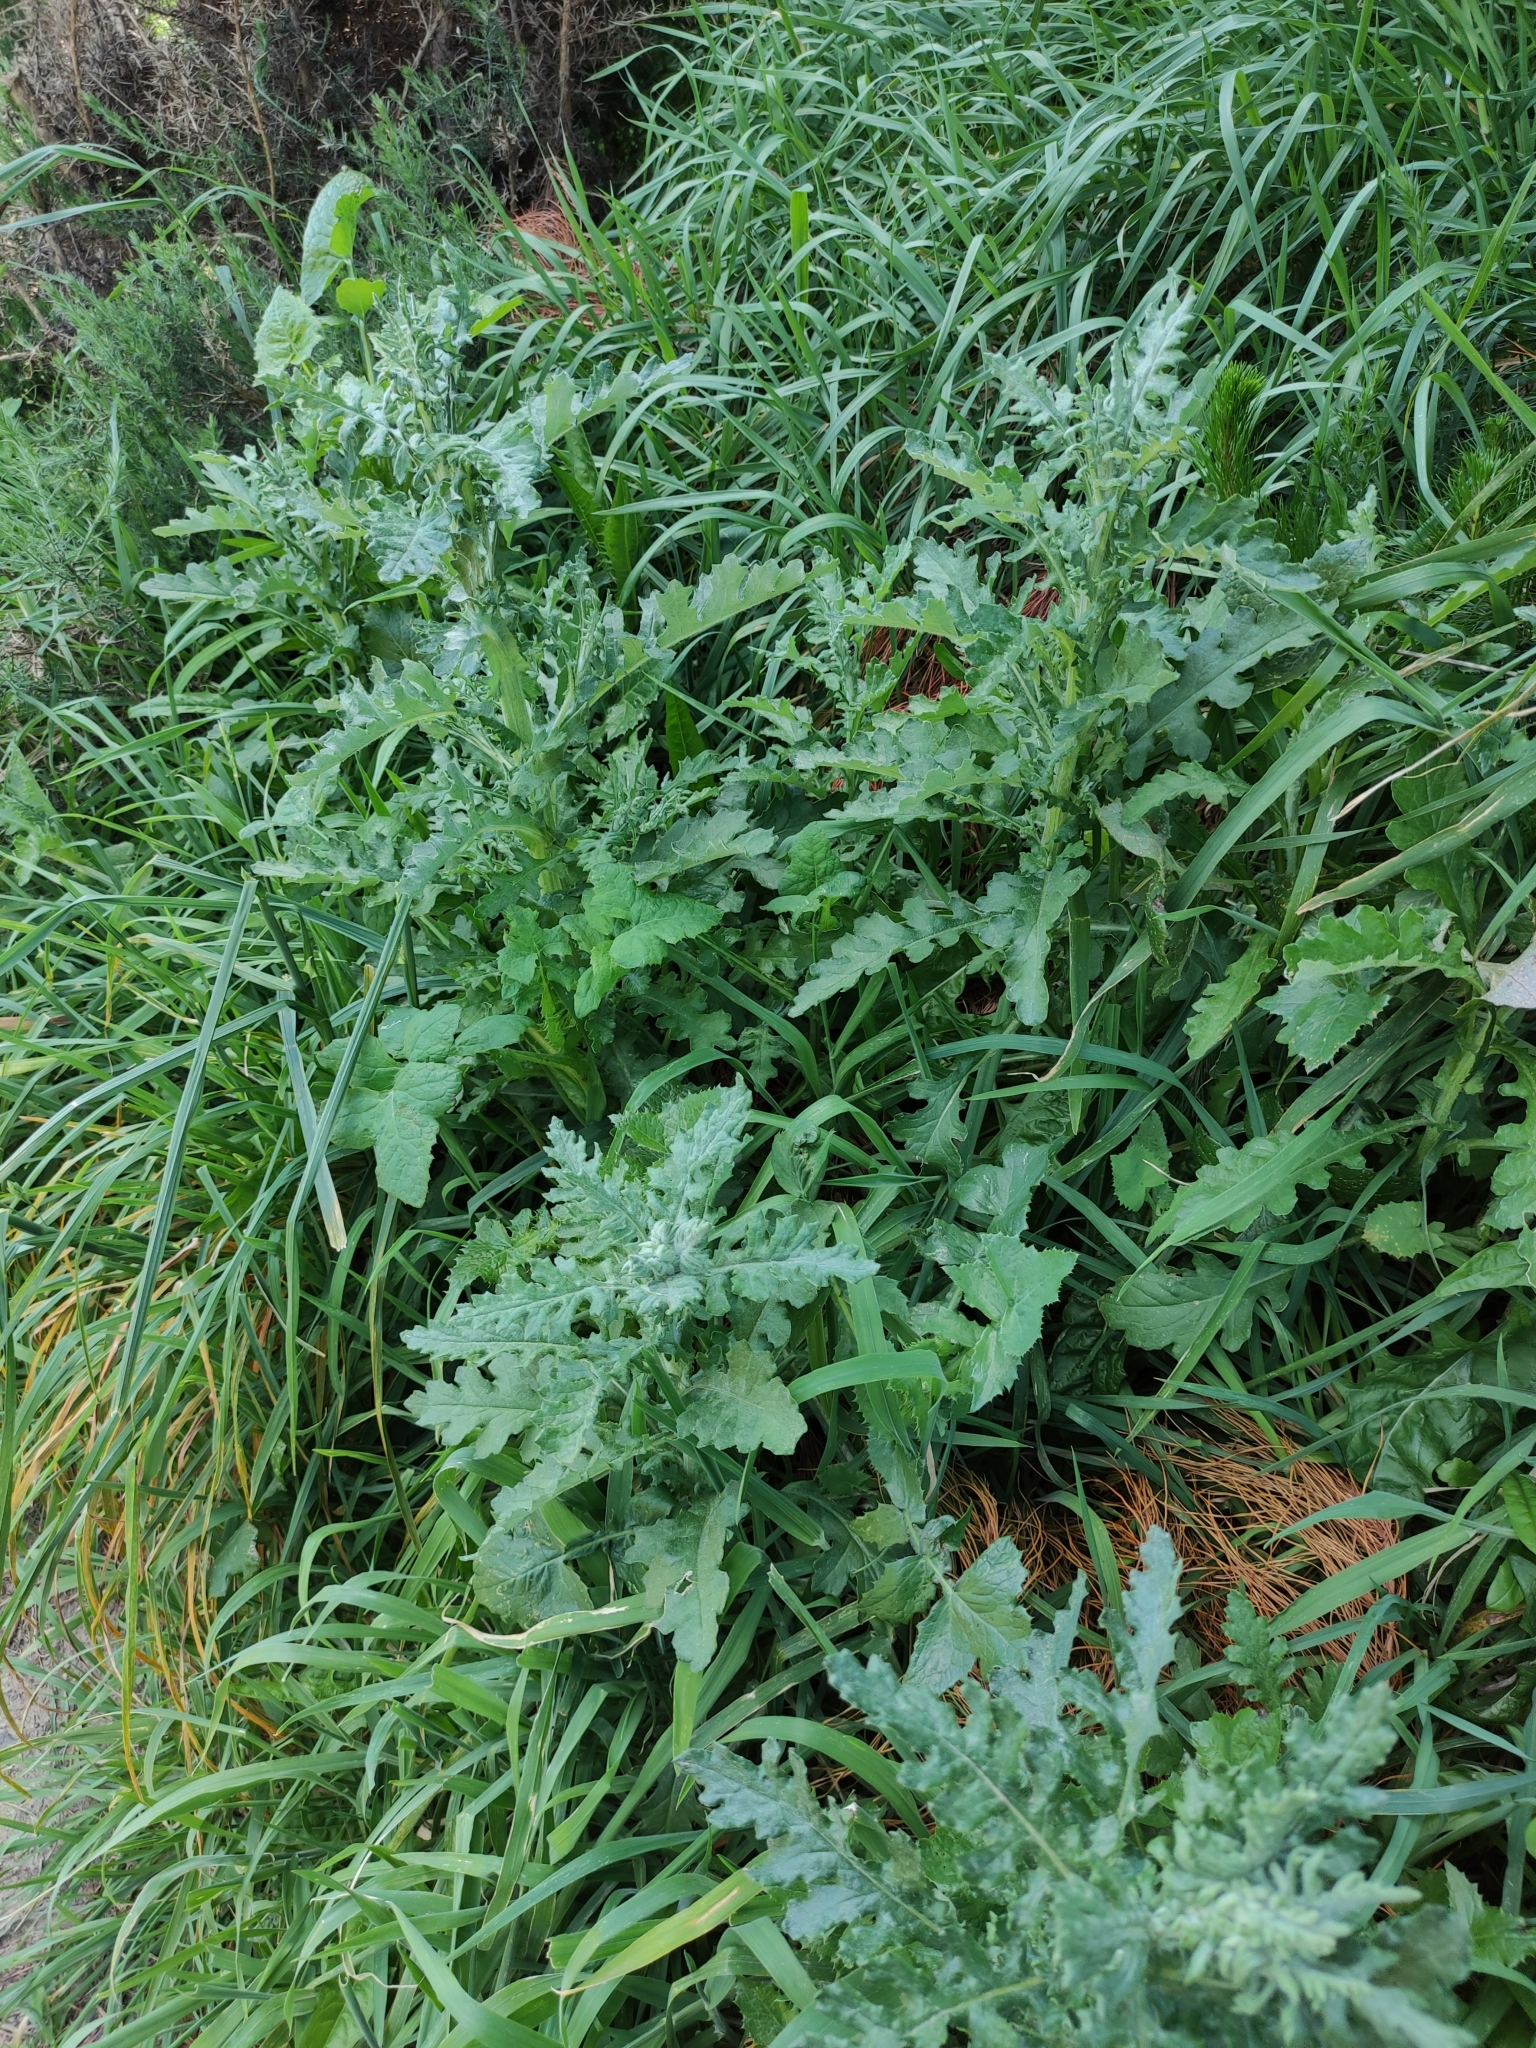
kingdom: Plantae
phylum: Tracheophyta
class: Magnoliopsida
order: Asterales
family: Asteraceae
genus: Senecio
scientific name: Senecio glomeratus
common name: Cutleaf burnweed
